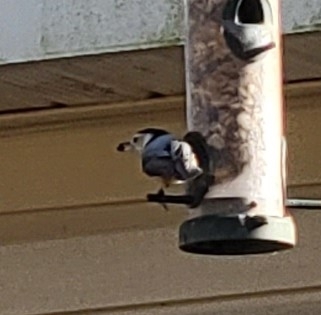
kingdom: Animalia
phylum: Chordata
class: Aves
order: Passeriformes
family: Sittidae
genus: Sitta
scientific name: Sitta carolinensis
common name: White-breasted nuthatch
